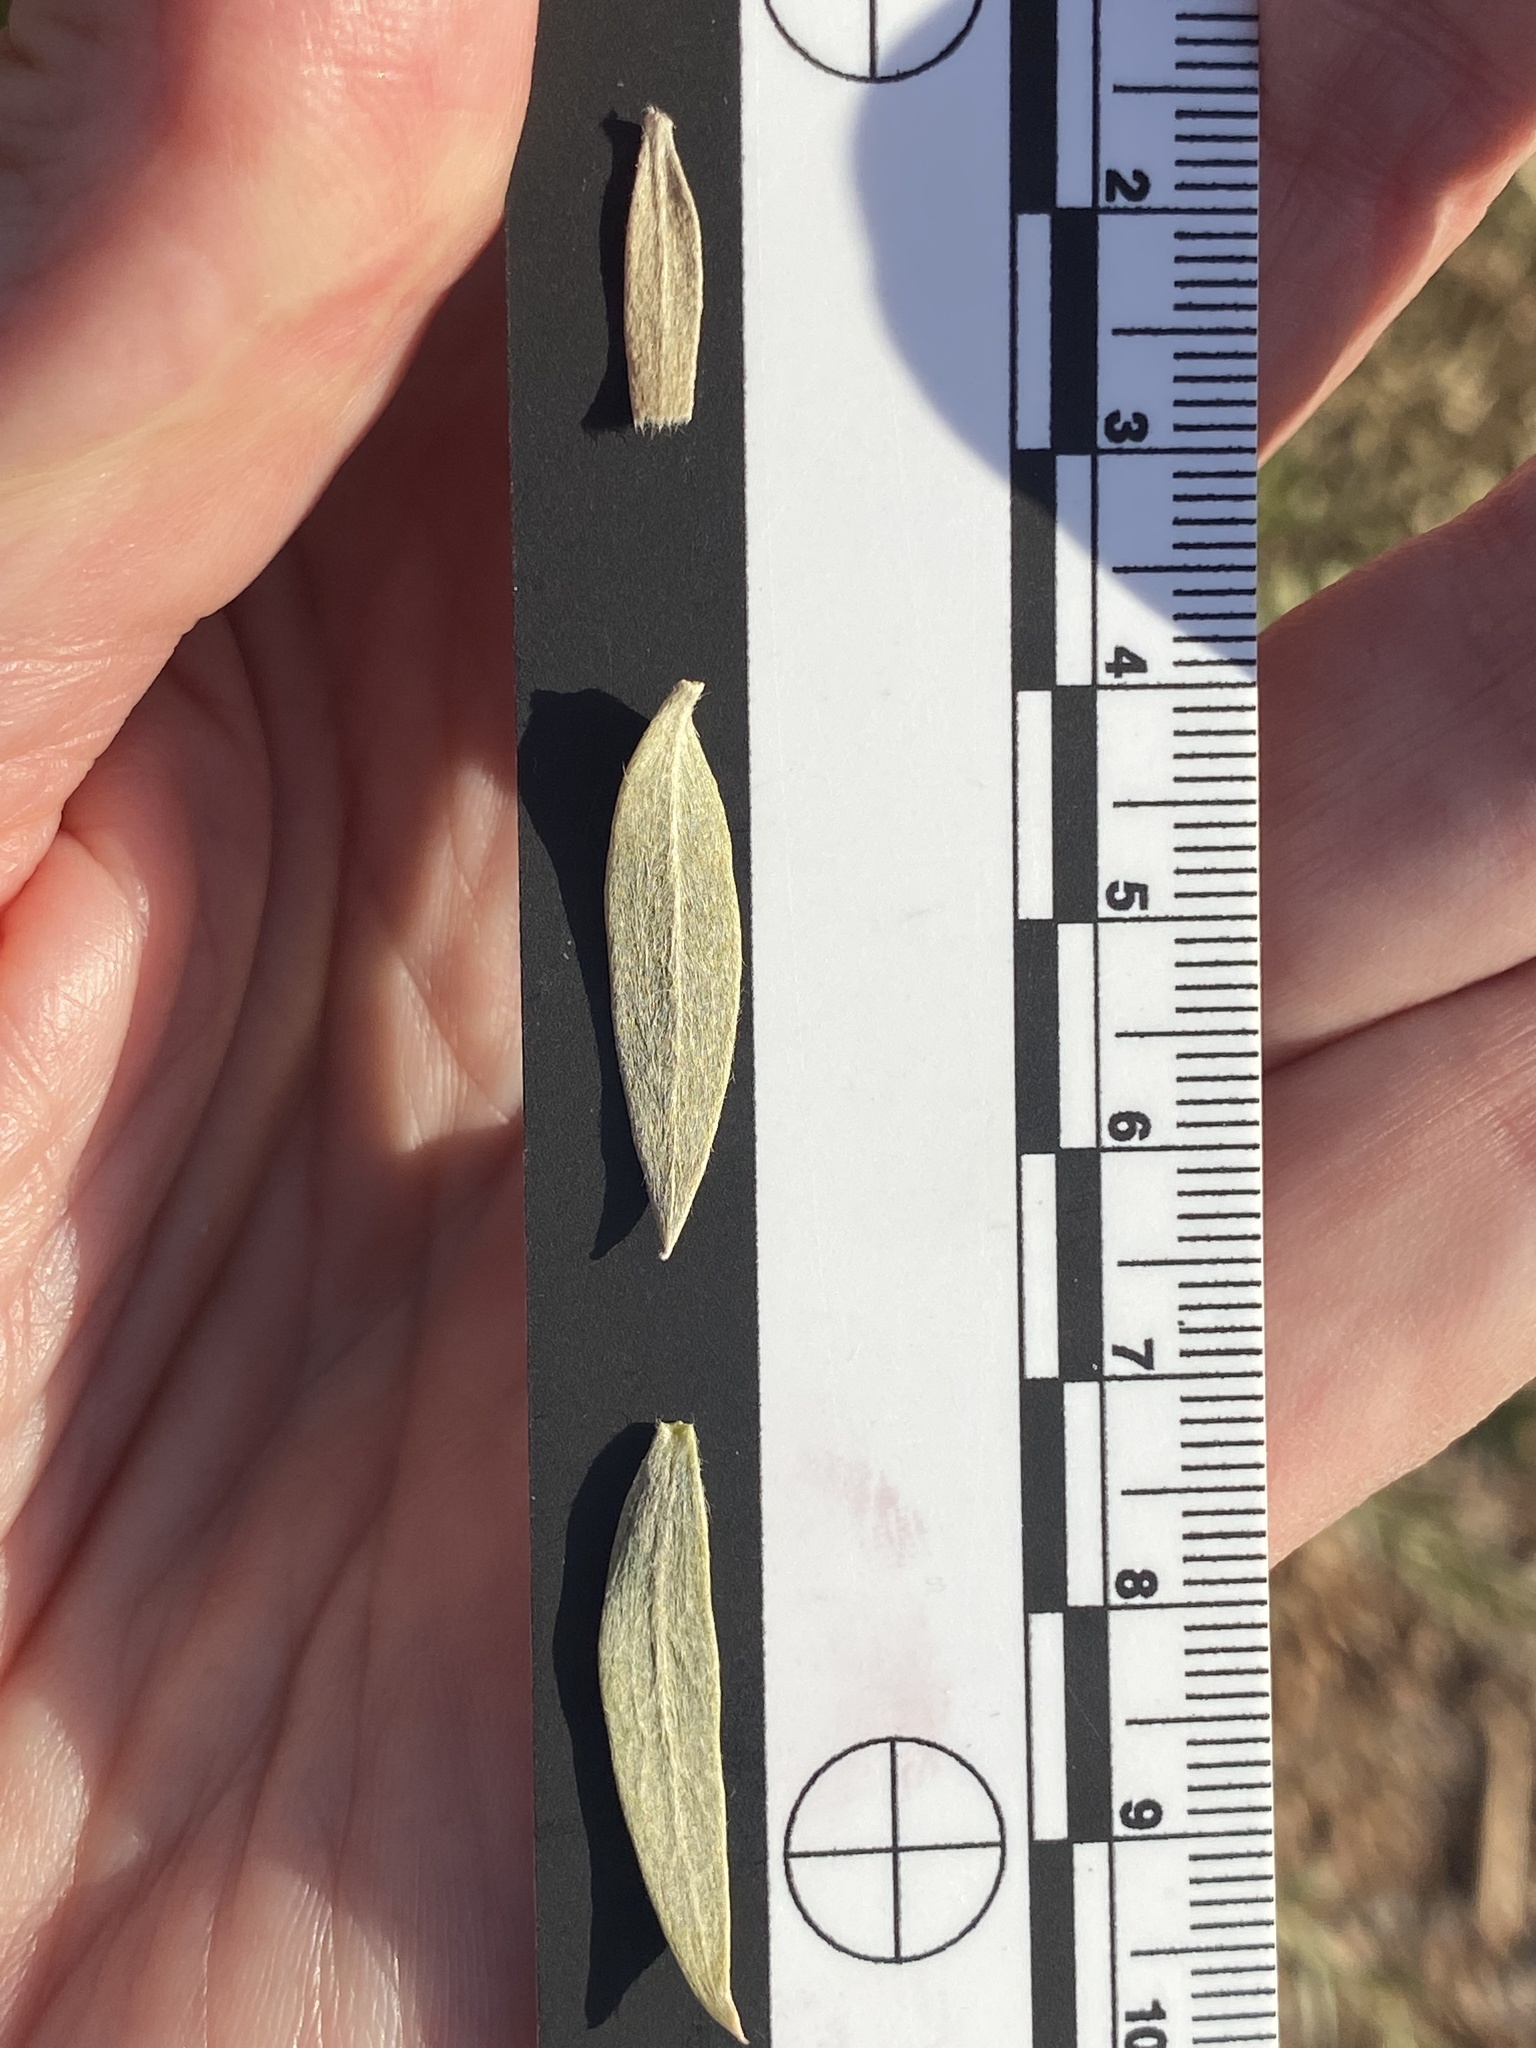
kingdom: Plantae
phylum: Tracheophyta
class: Magnoliopsida
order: Asterales
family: Asteraceae
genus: Pluchea
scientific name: Pluchea sericea
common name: Arrow-weed
